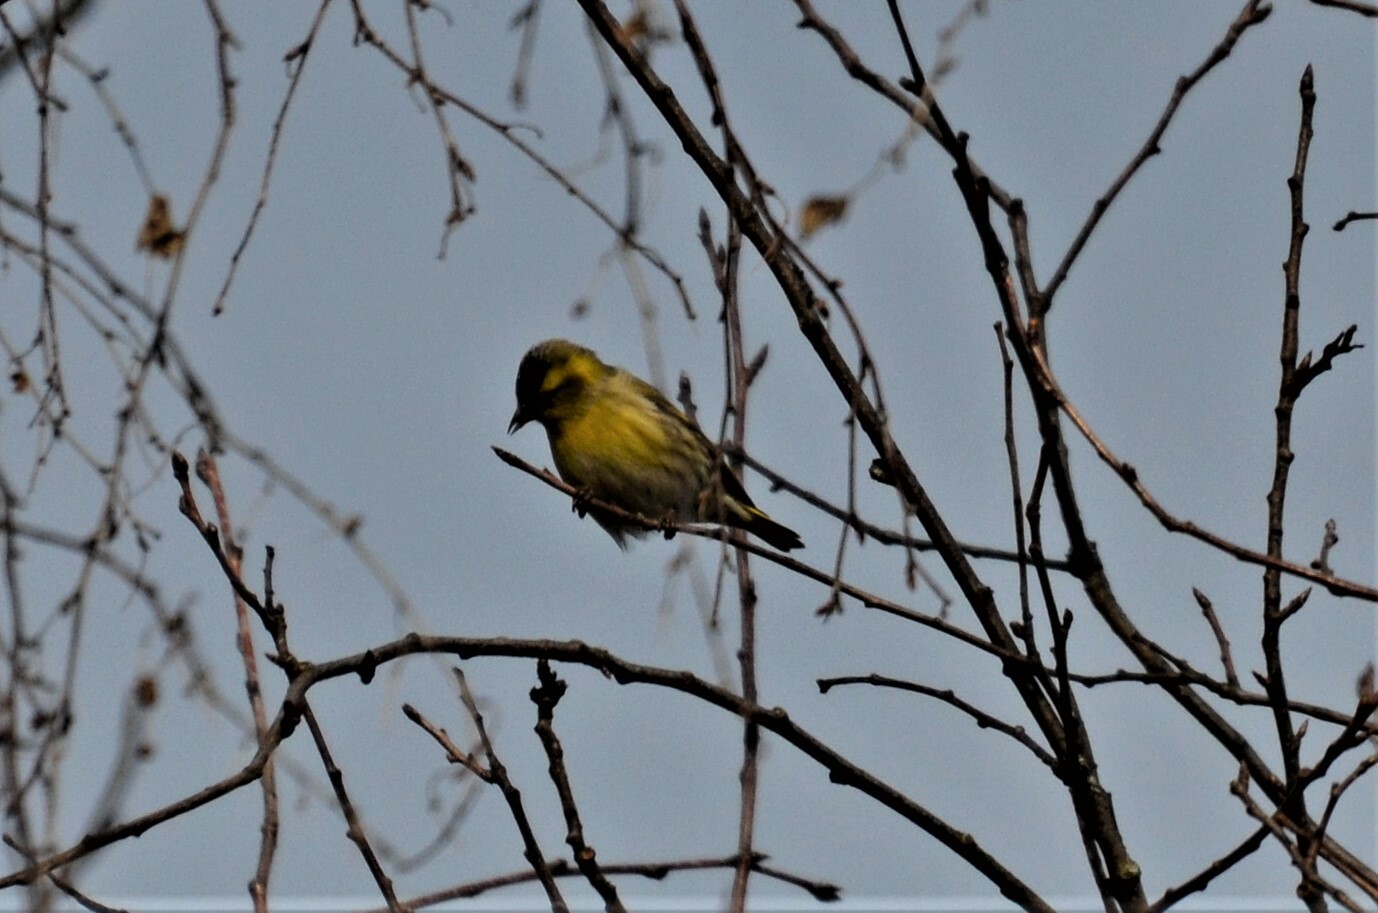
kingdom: Animalia
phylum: Chordata
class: Aves
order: Passeriformes
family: Fringillidae
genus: Spinus
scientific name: Spinus spinus
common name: Eurasian siskin
